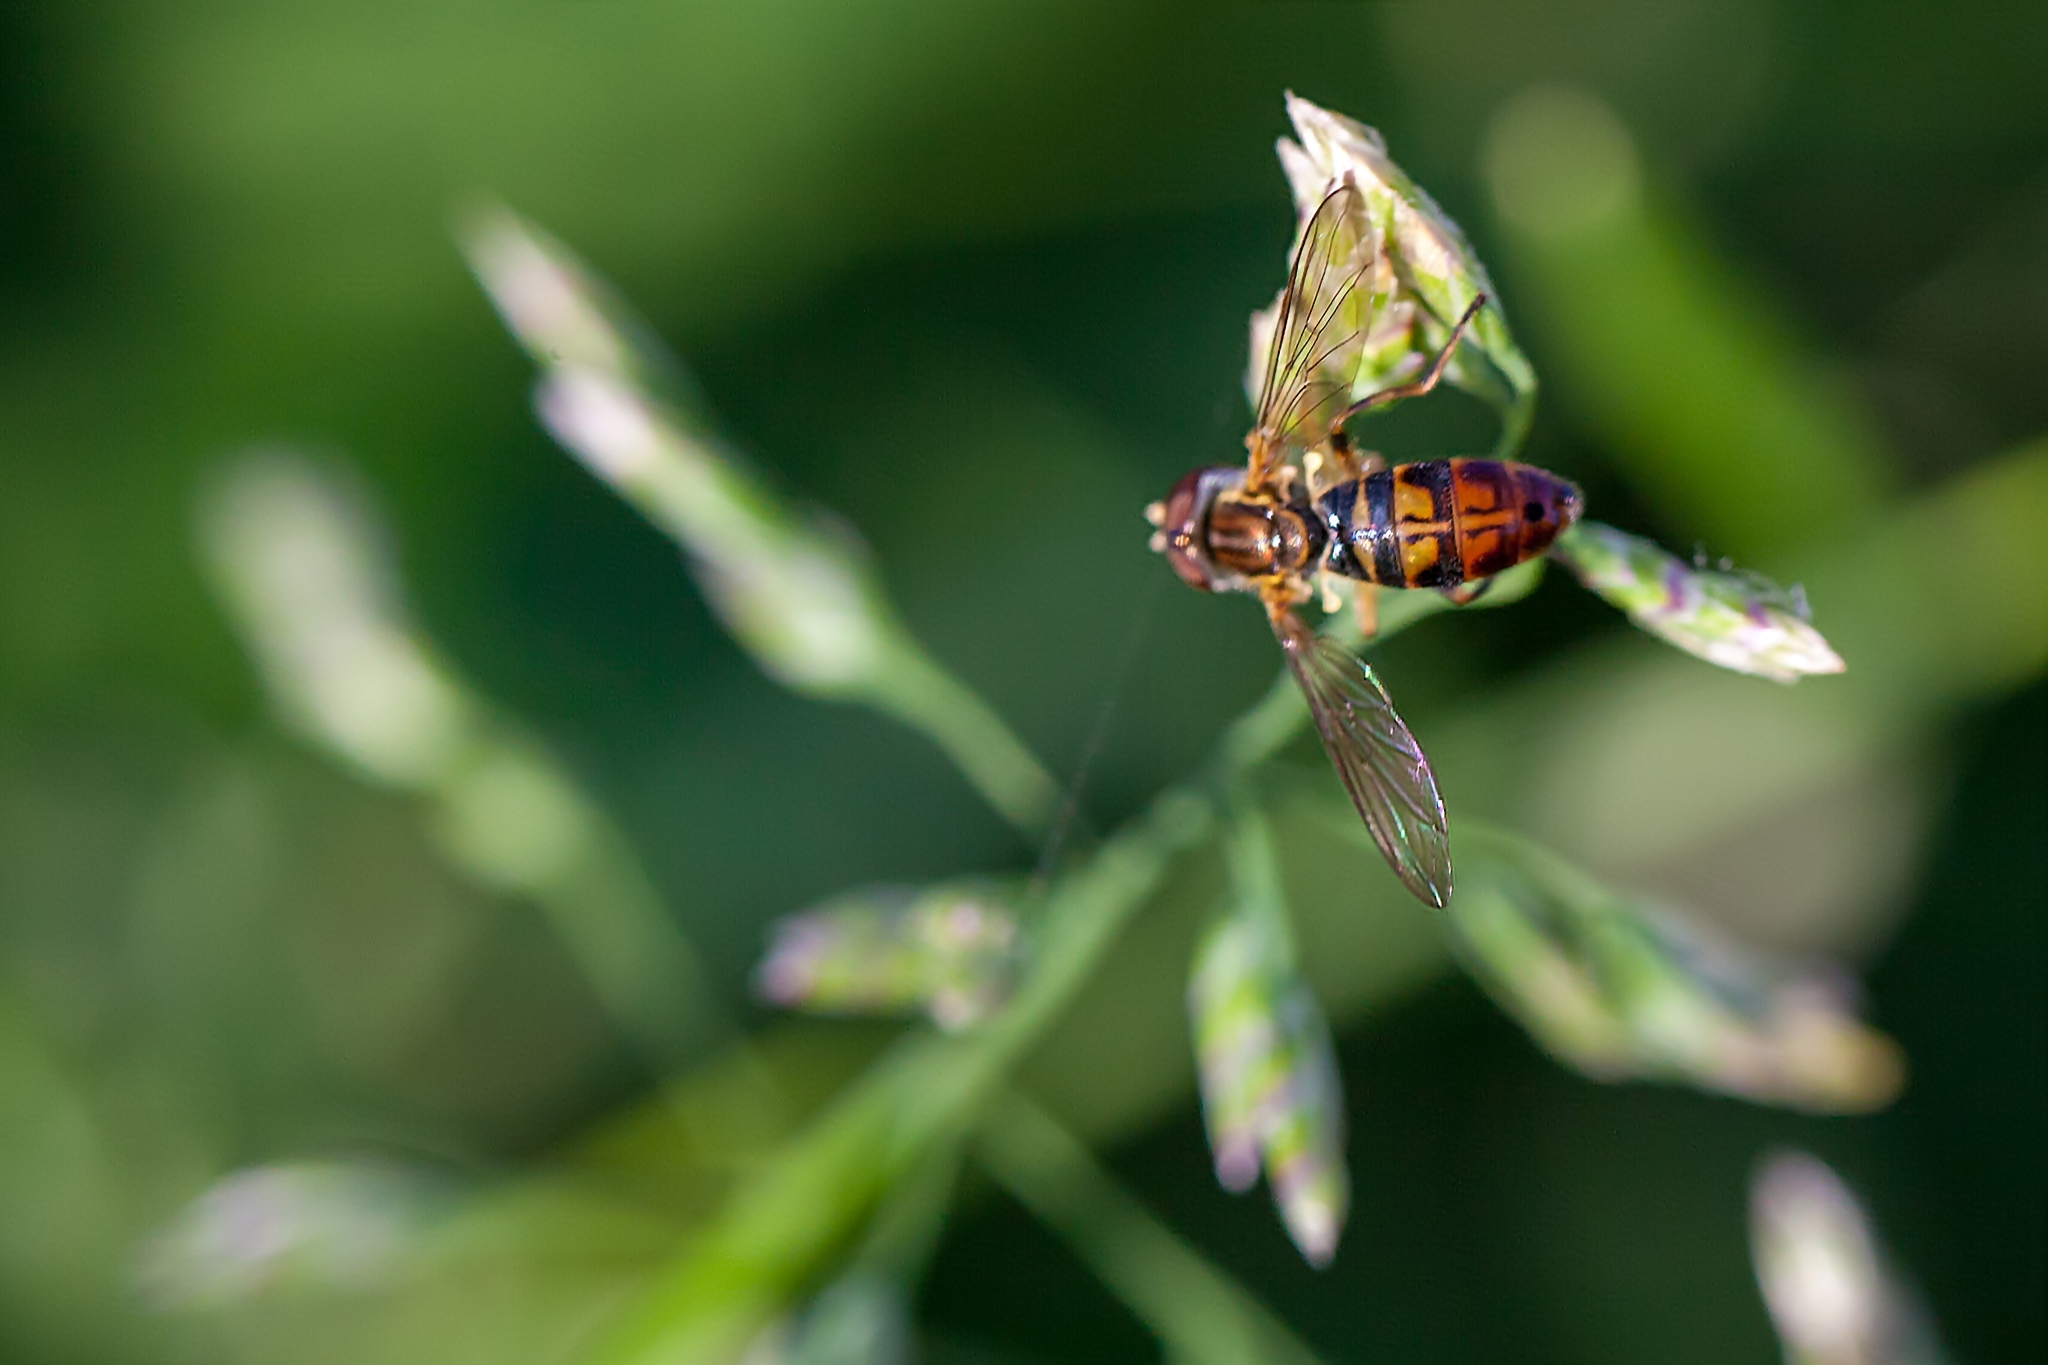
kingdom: Animalia
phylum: Arthropoda
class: Insecta
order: Diptera
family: Syrphidae
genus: Toxomerus
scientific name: Toxomerus floralis
